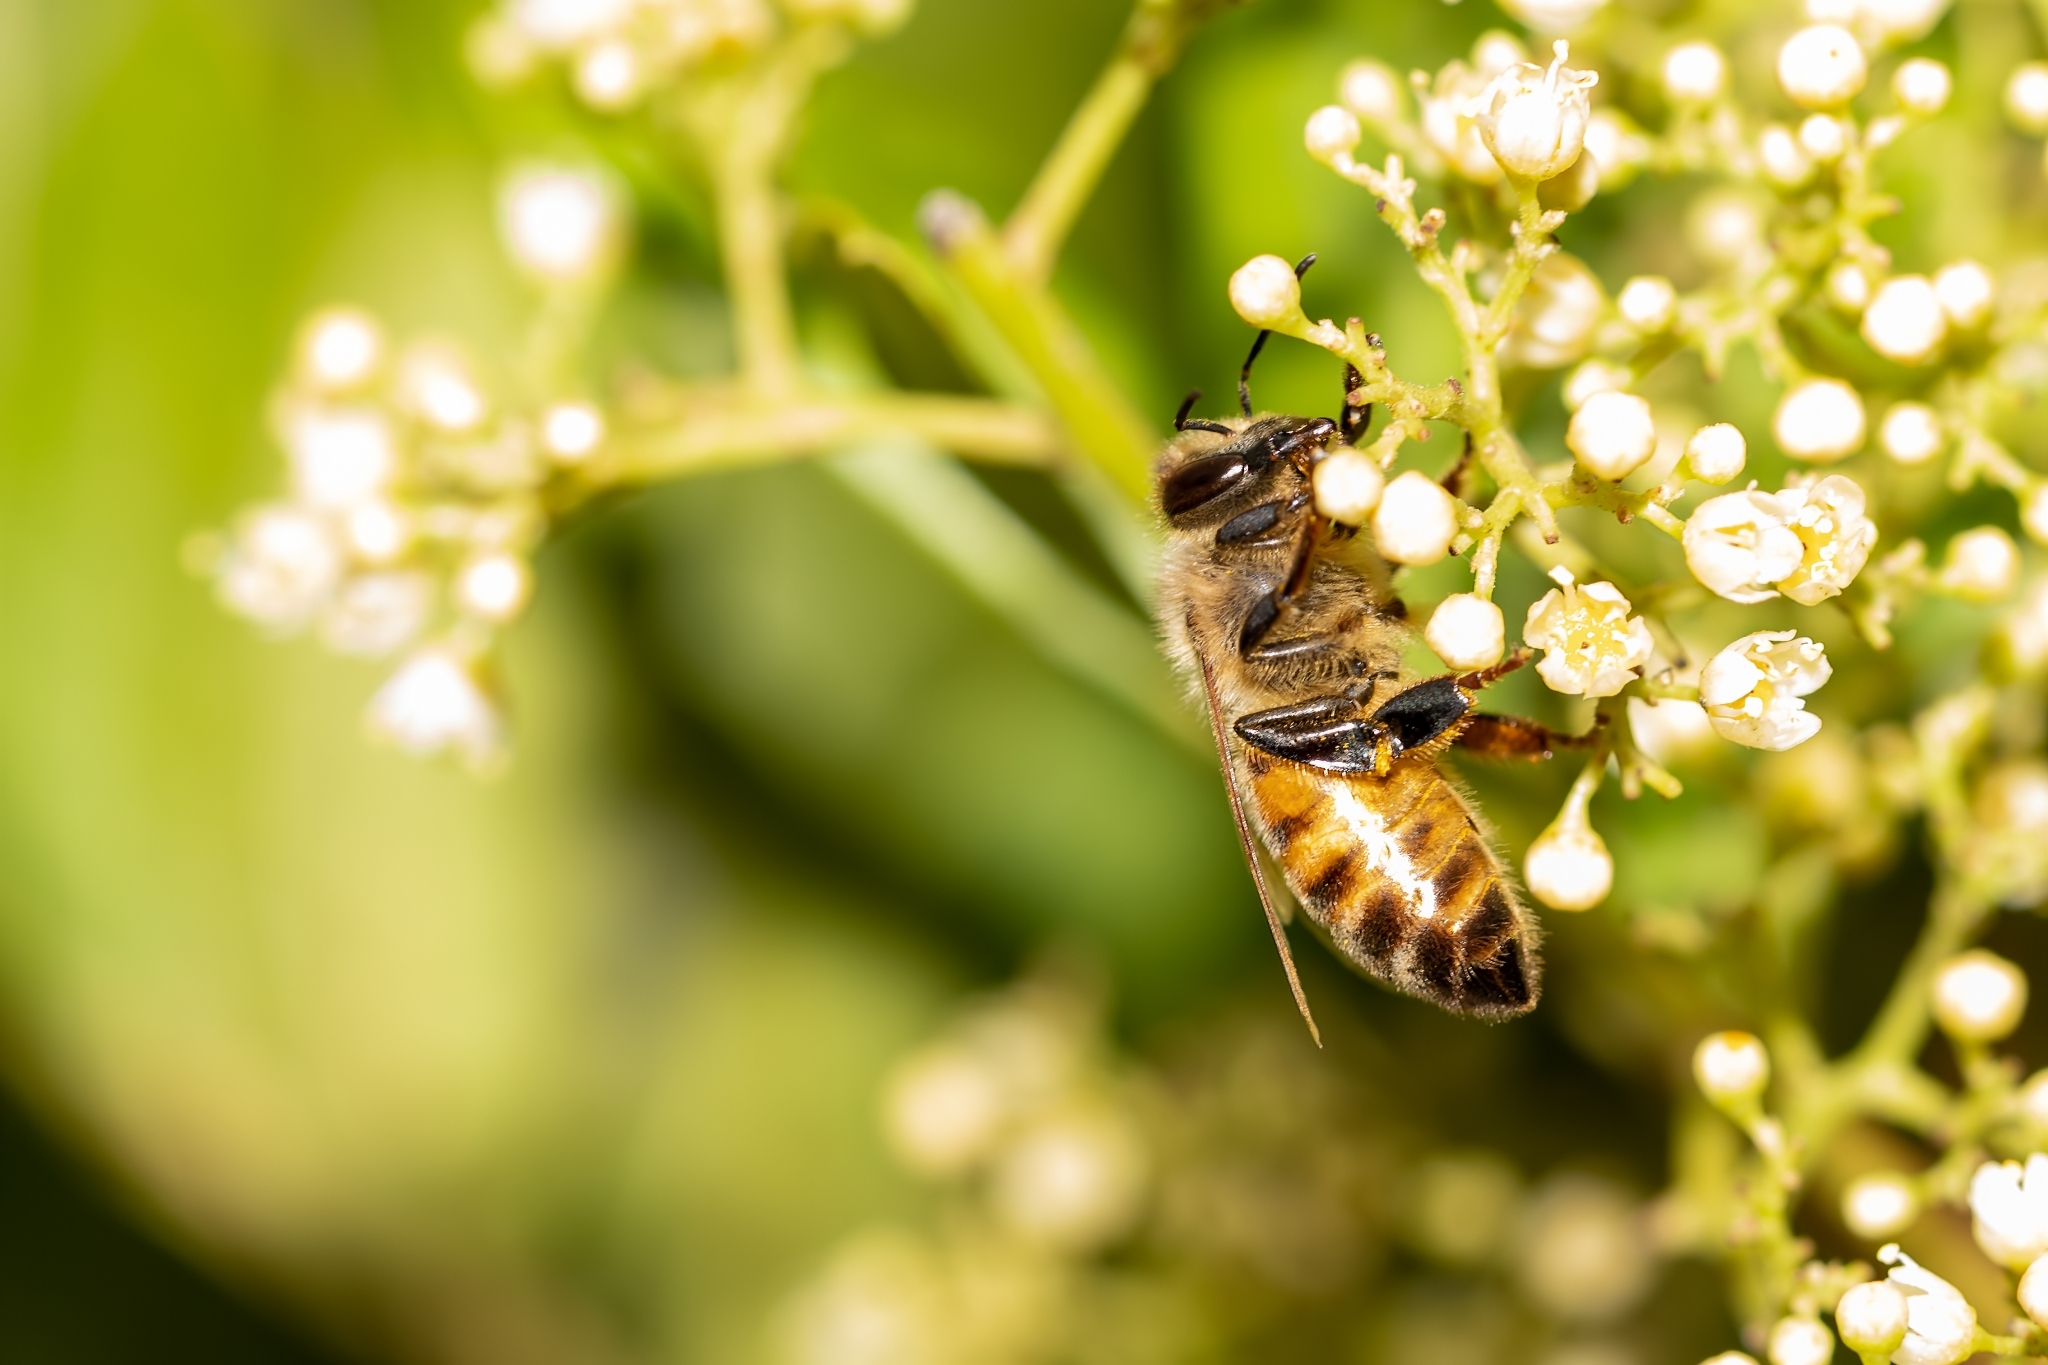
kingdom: Animalia
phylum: Arthropoda
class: Insecta
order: Hymenoptera
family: Apidae
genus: Apis
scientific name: Apis mellifera
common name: Honey bee
